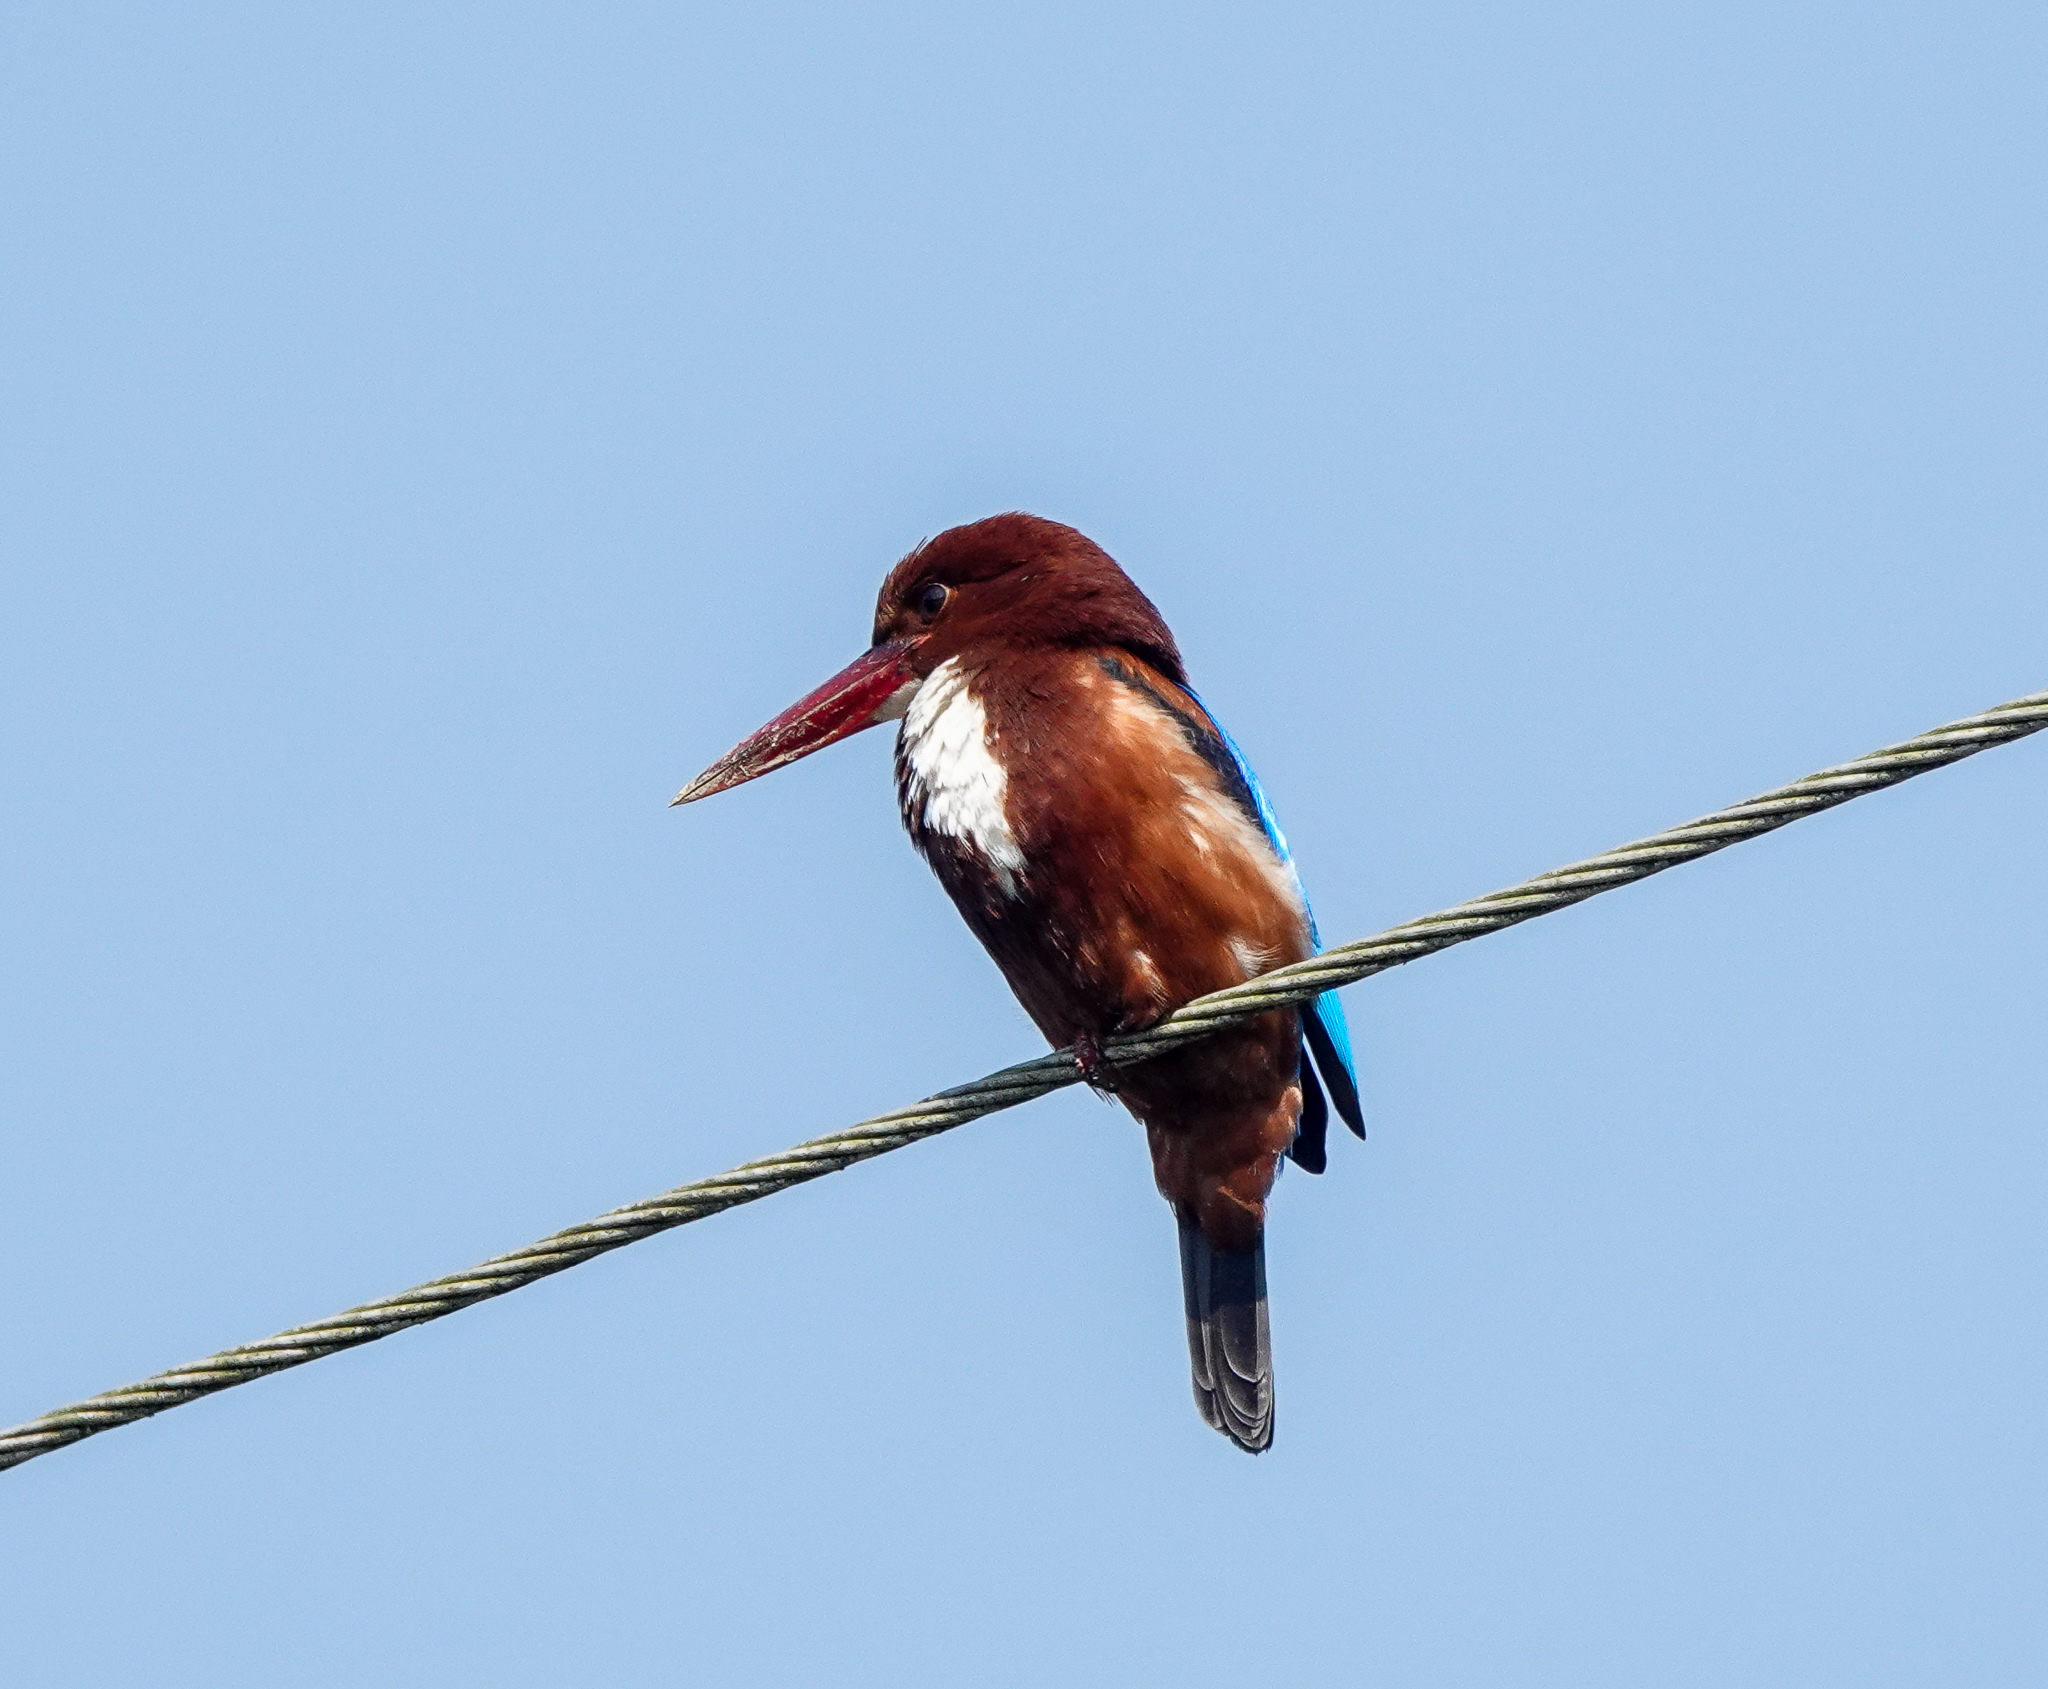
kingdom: Animalia
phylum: Chordata
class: Aves
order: Coraciiformes
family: Alcedinidae
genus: Halcyon
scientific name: Halcyon smyrnensis
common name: White-throated kingfisher
